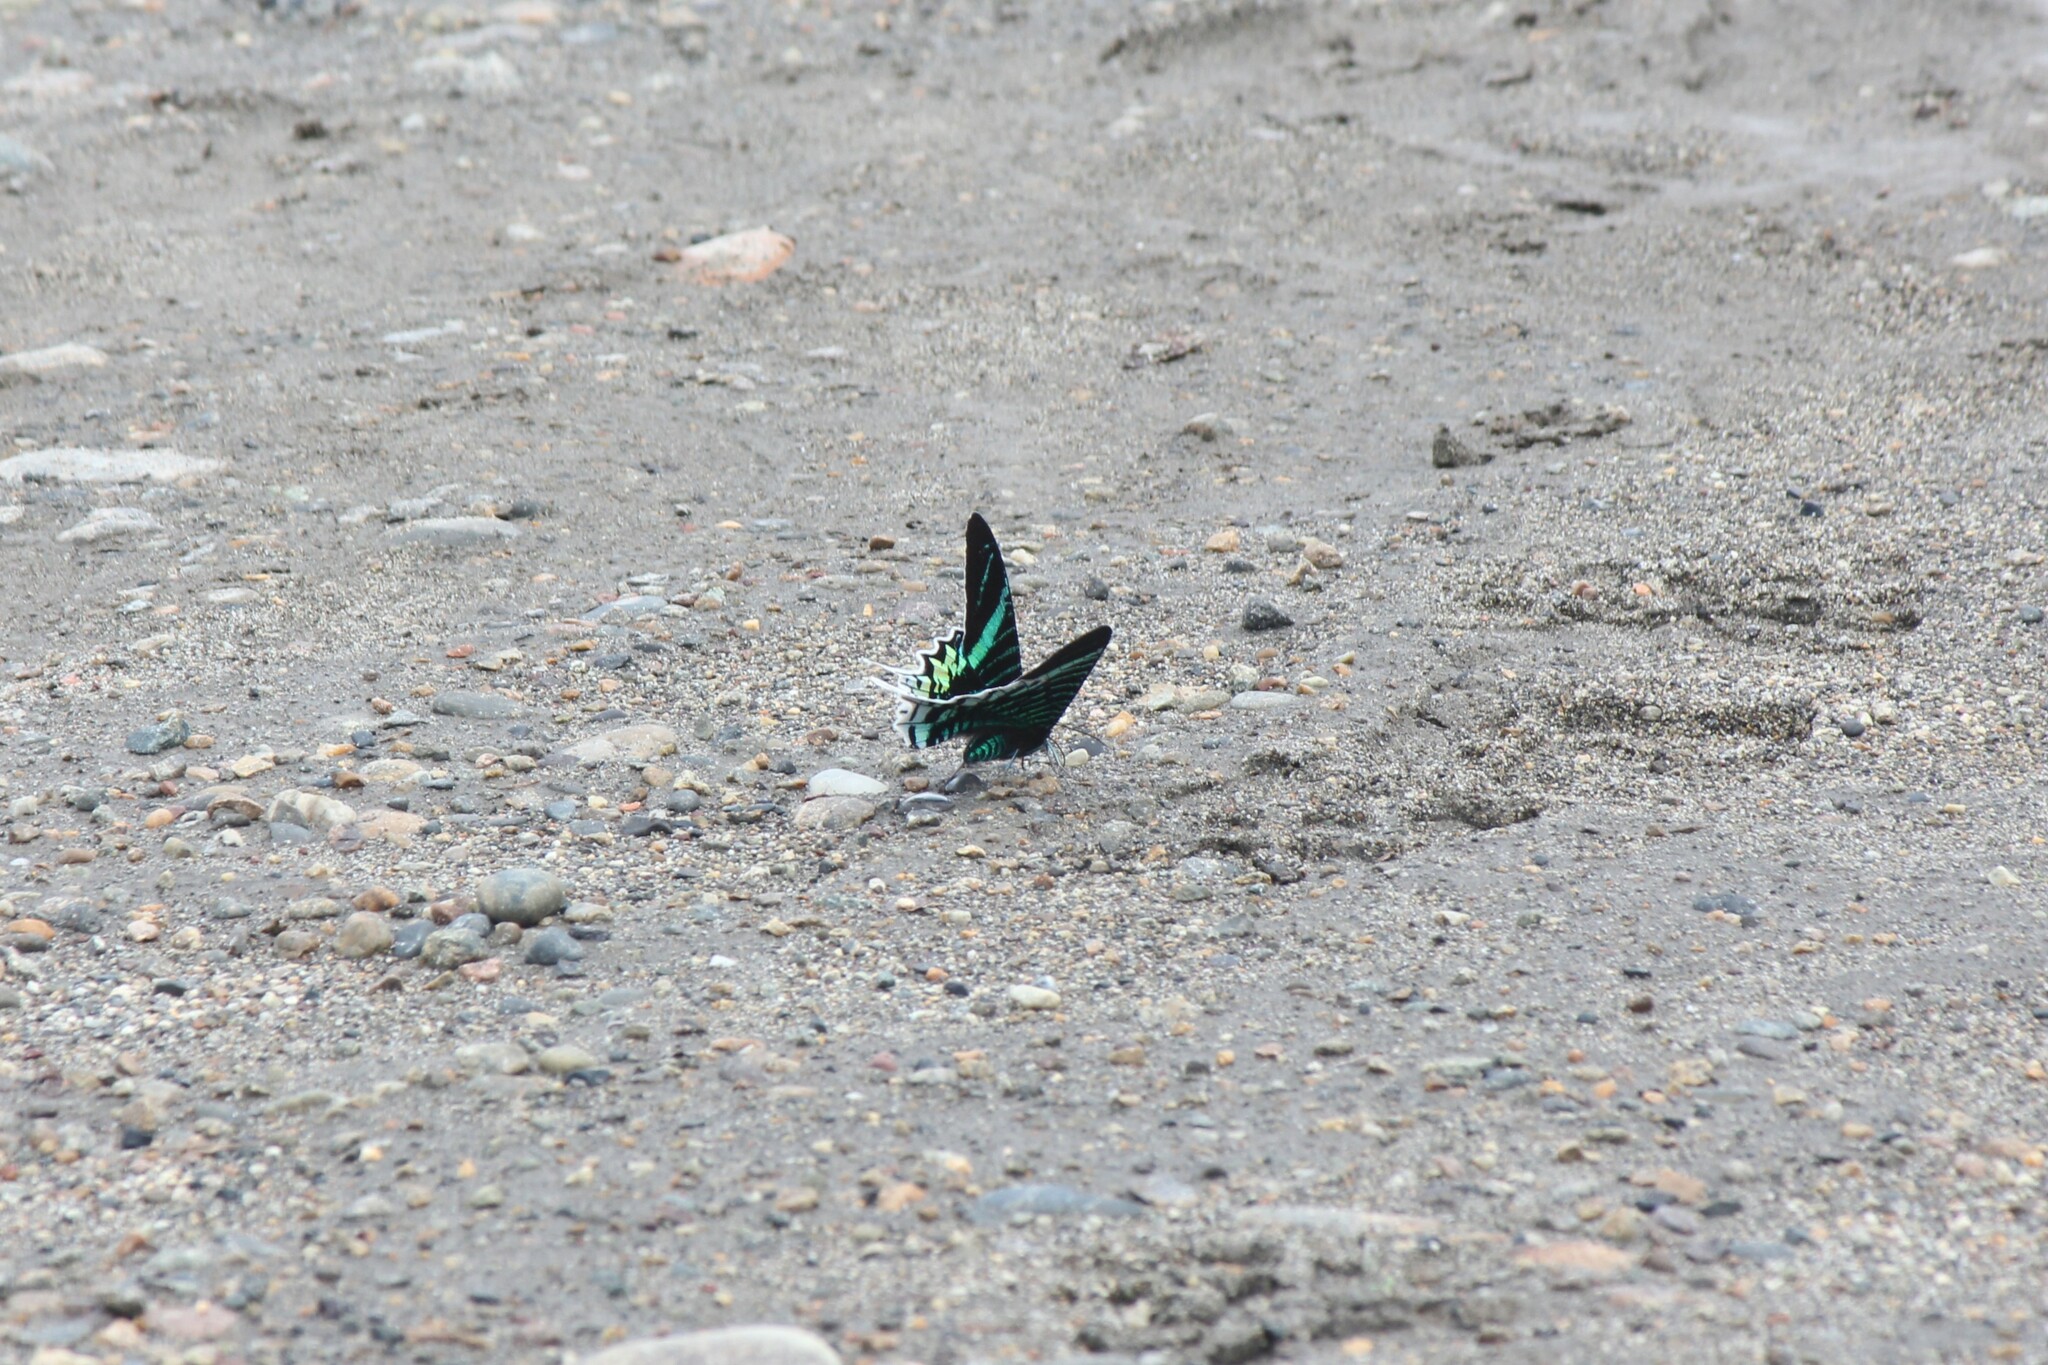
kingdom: Animalia
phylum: Arthropoda
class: Insecta
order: Lepidoptera
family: Uraniidae
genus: Urania
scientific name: Urania leilus
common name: Peacock moth
